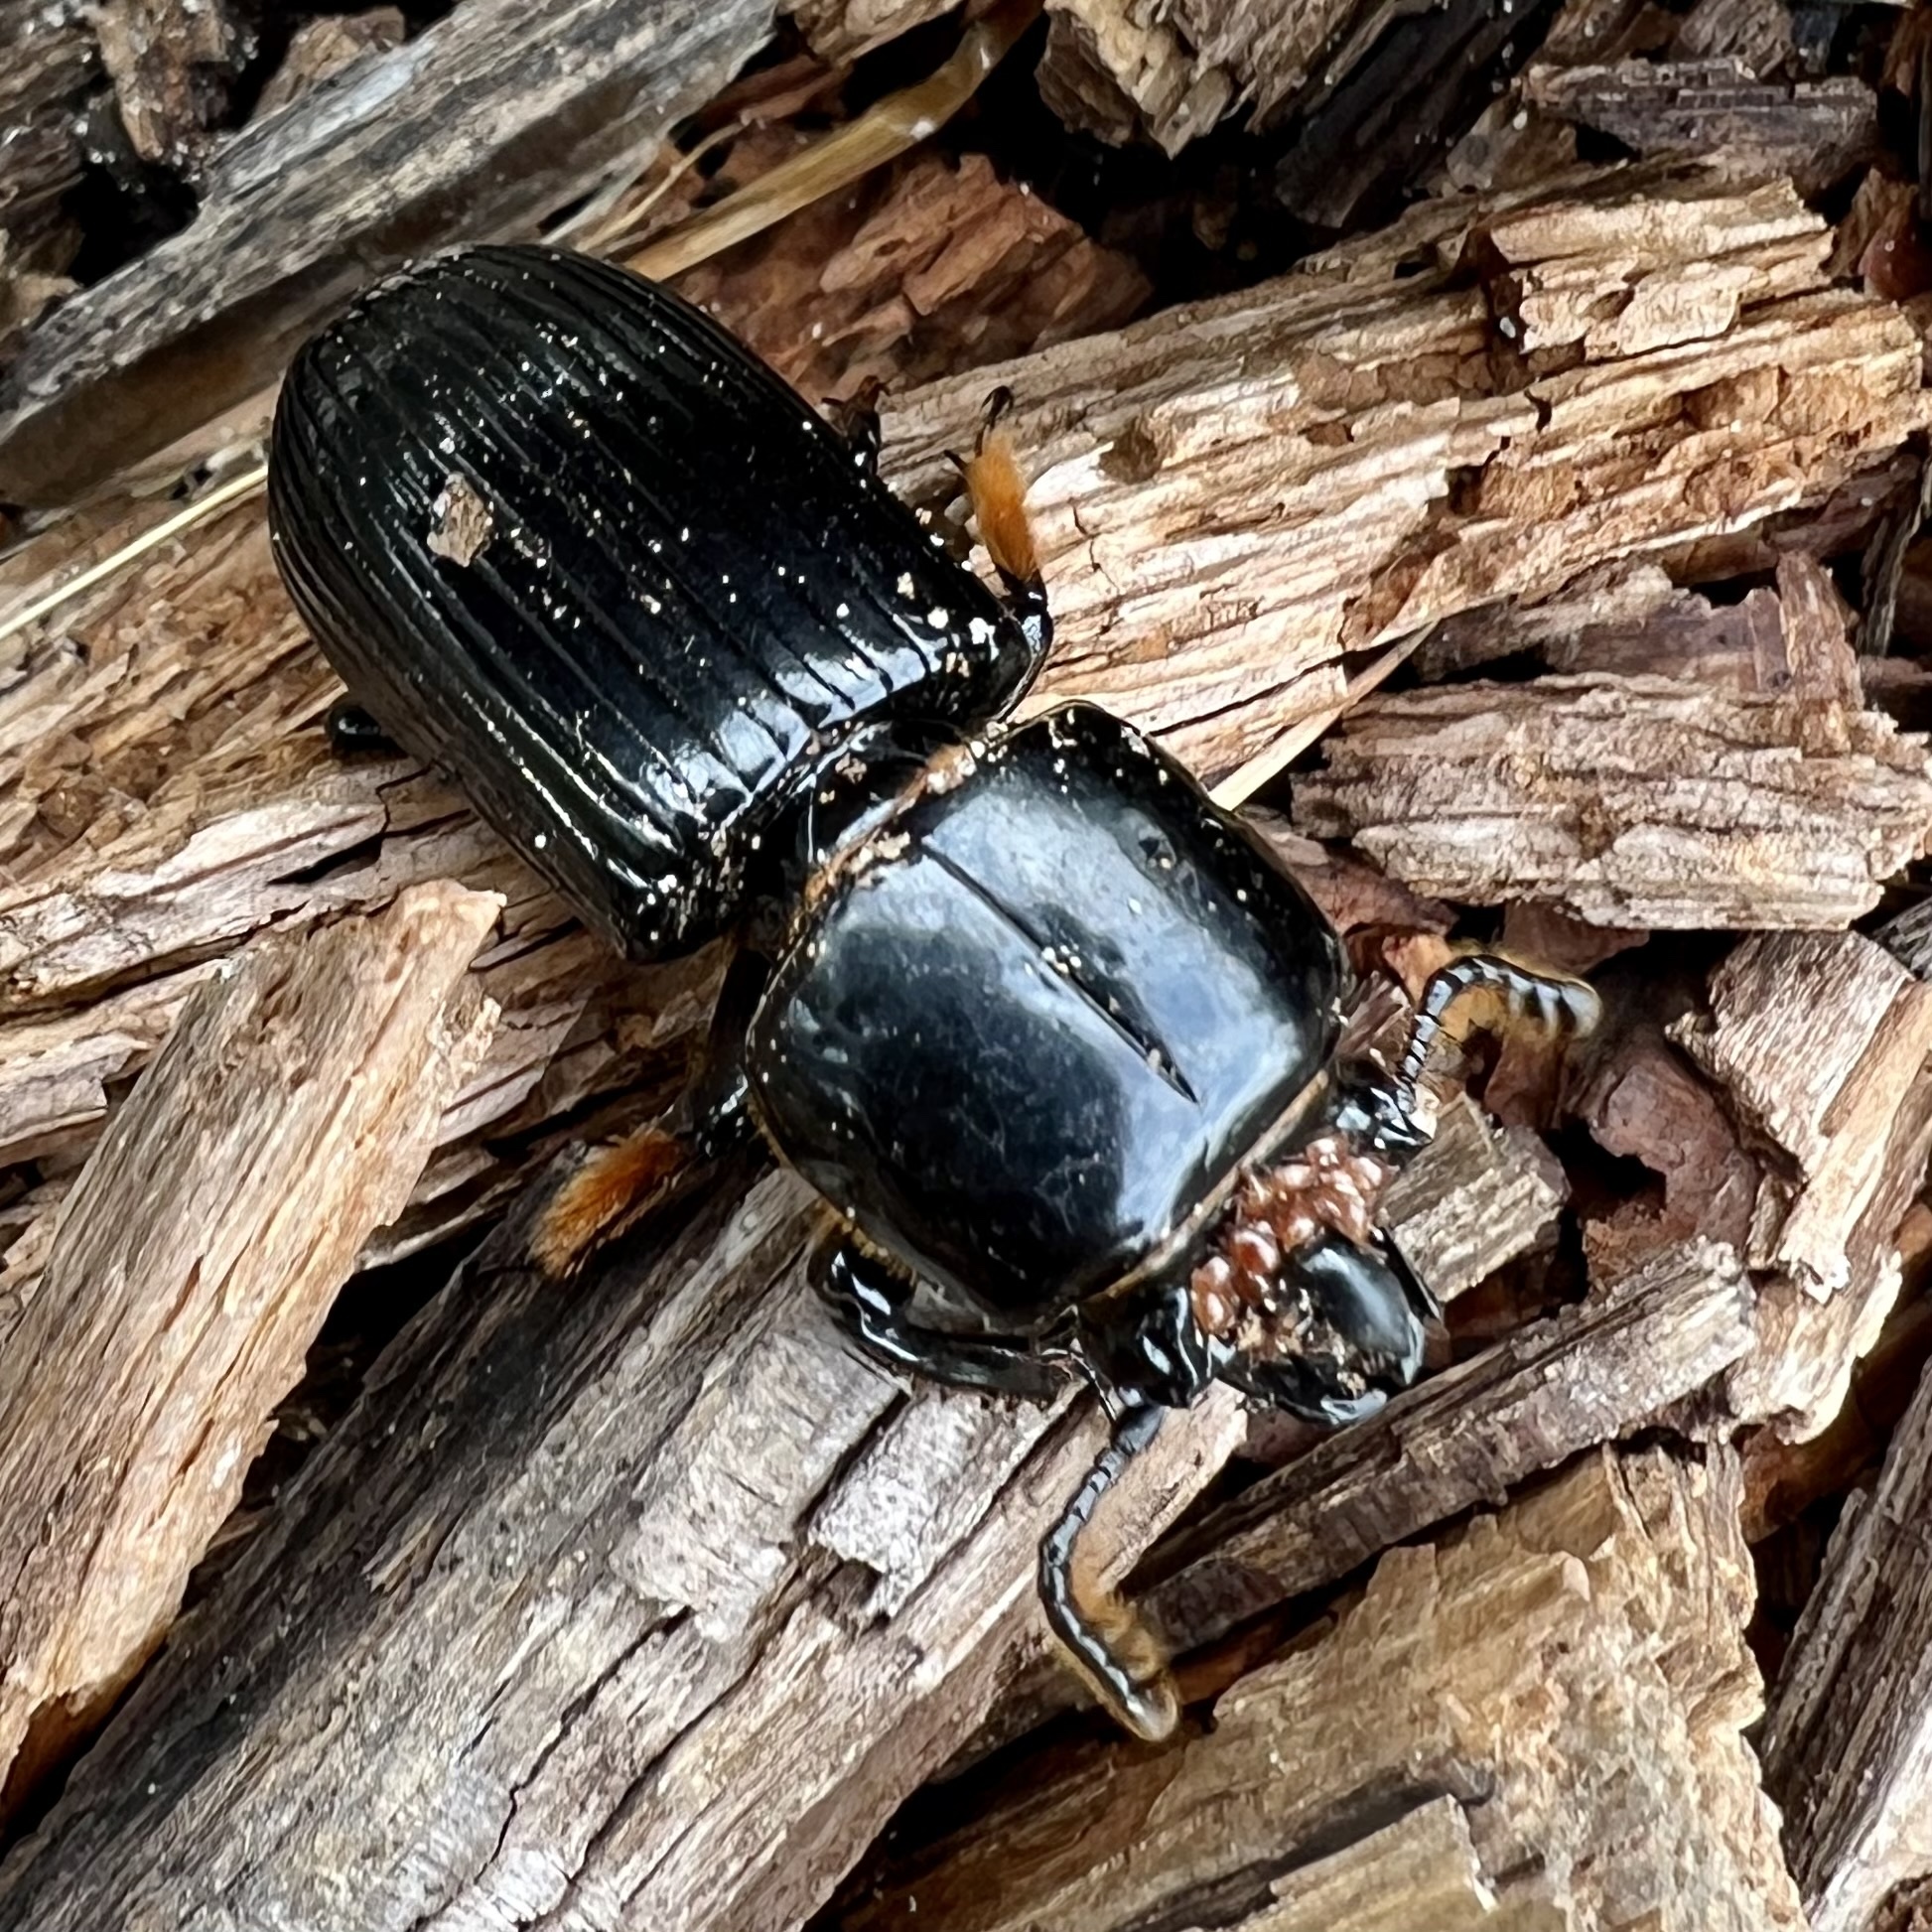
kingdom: Animalia
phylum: Arthropoda
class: Insecta
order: Coleoptera
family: Passalidae
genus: Odontotaenius
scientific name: Odontotaenius disjunctus
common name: Patent leather beetle
